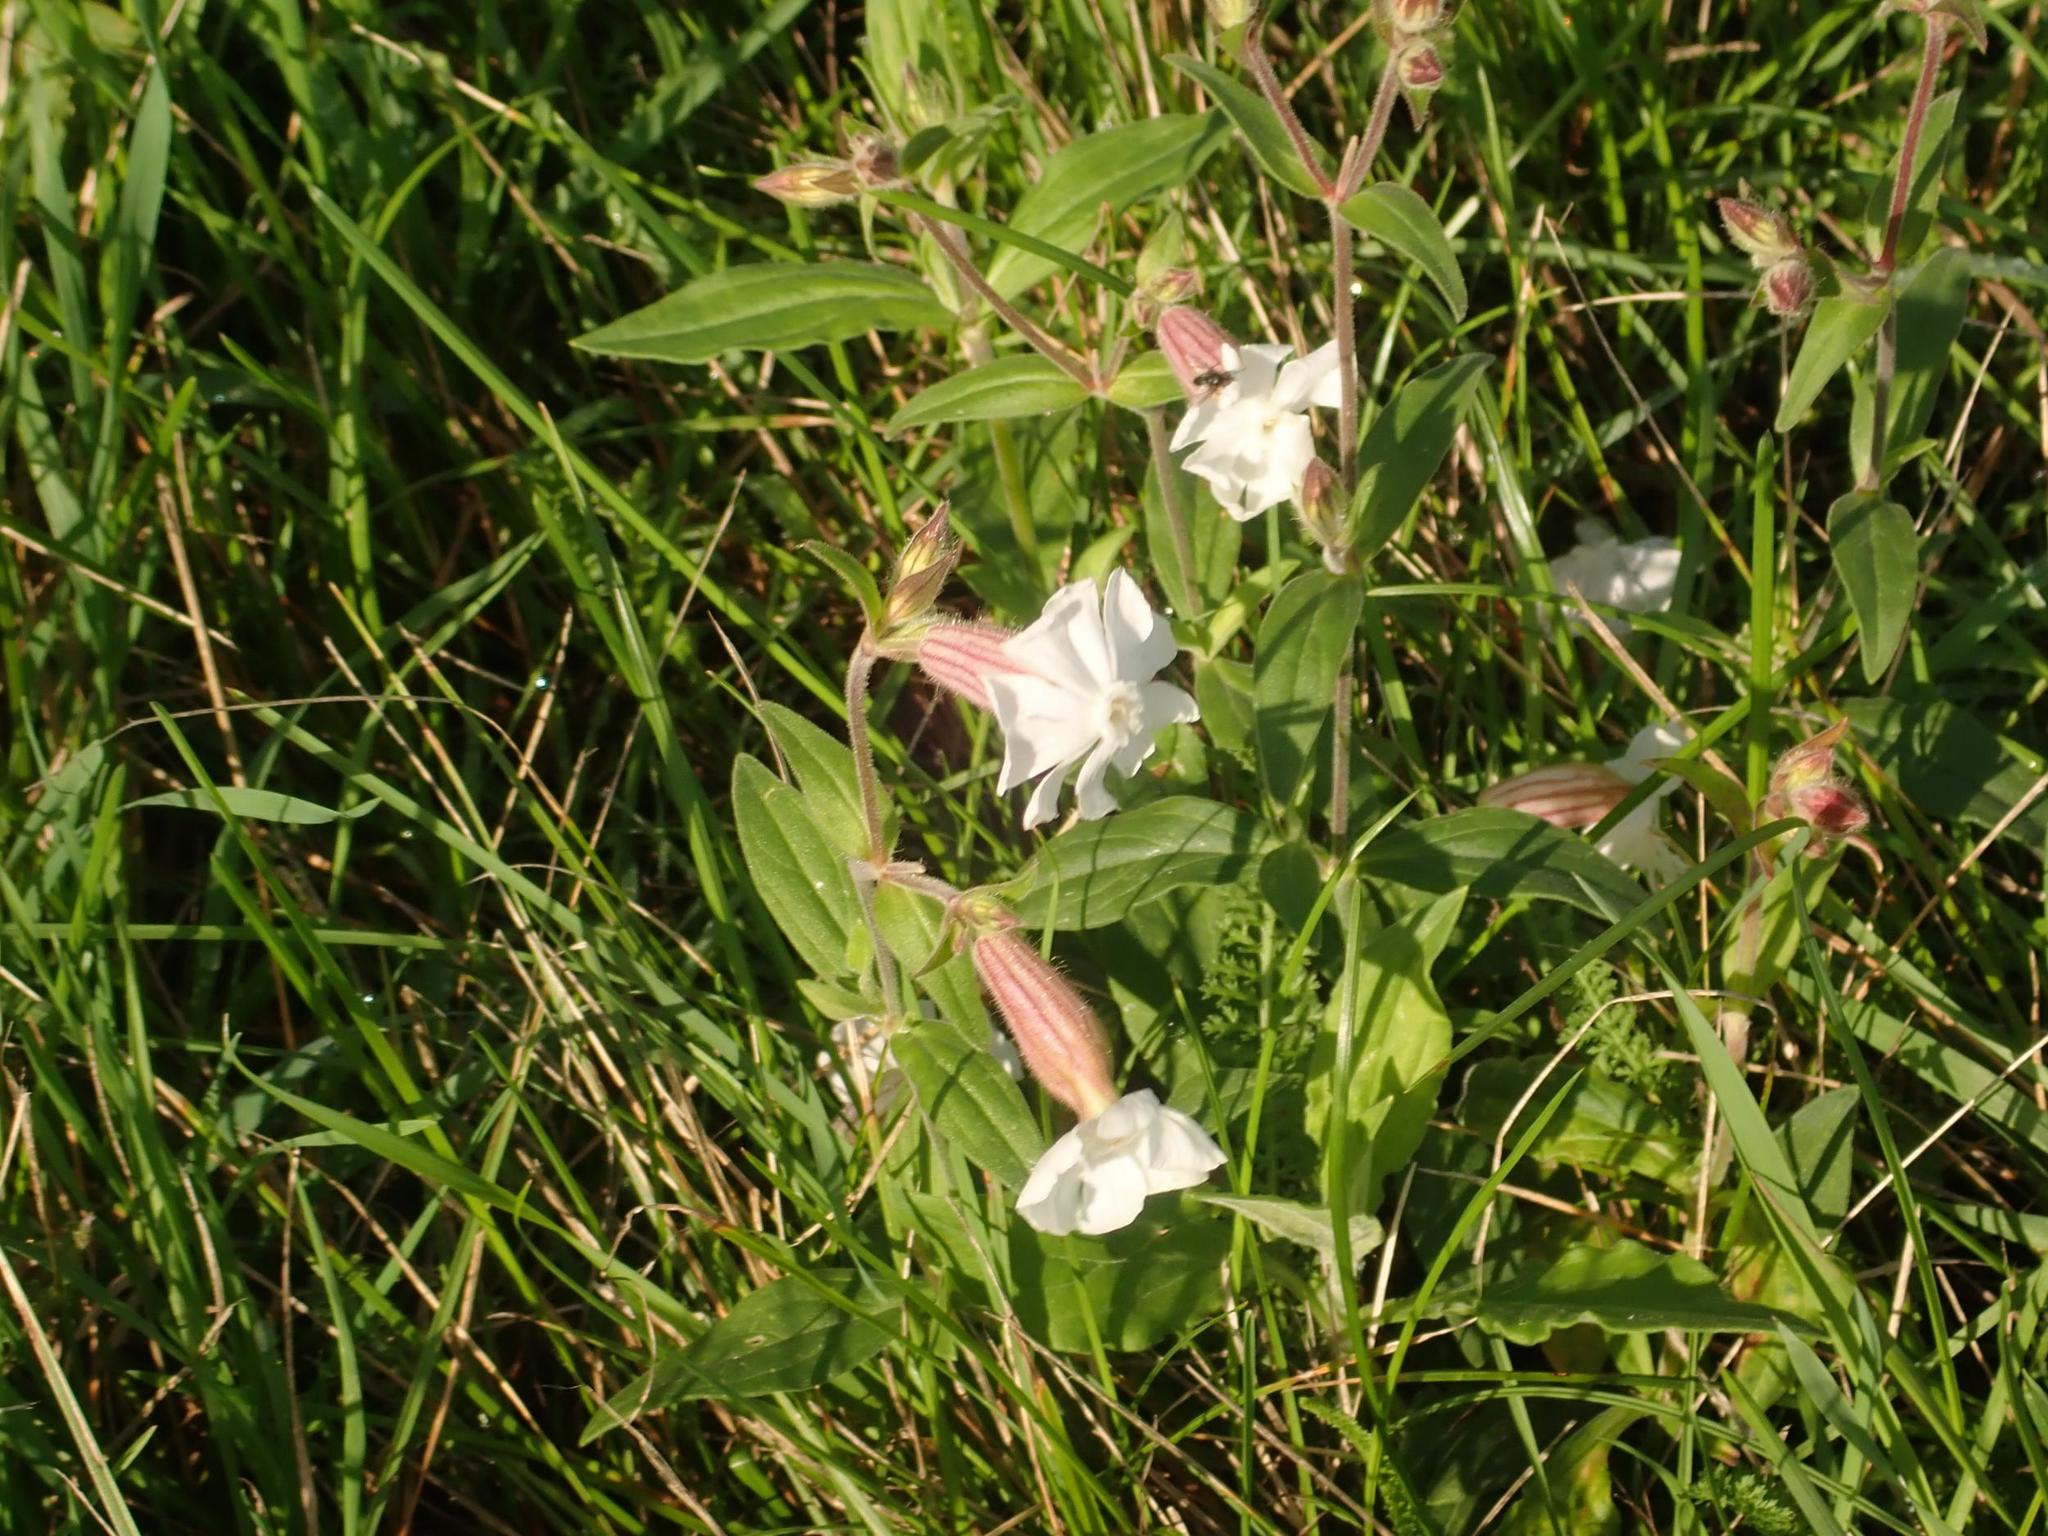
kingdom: Plantae
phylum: Tracheophyta
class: Magnoliopsida
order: Caryophyllales
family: Caryophyllaceae
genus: Silene
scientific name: Silene latifolia
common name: White campion
